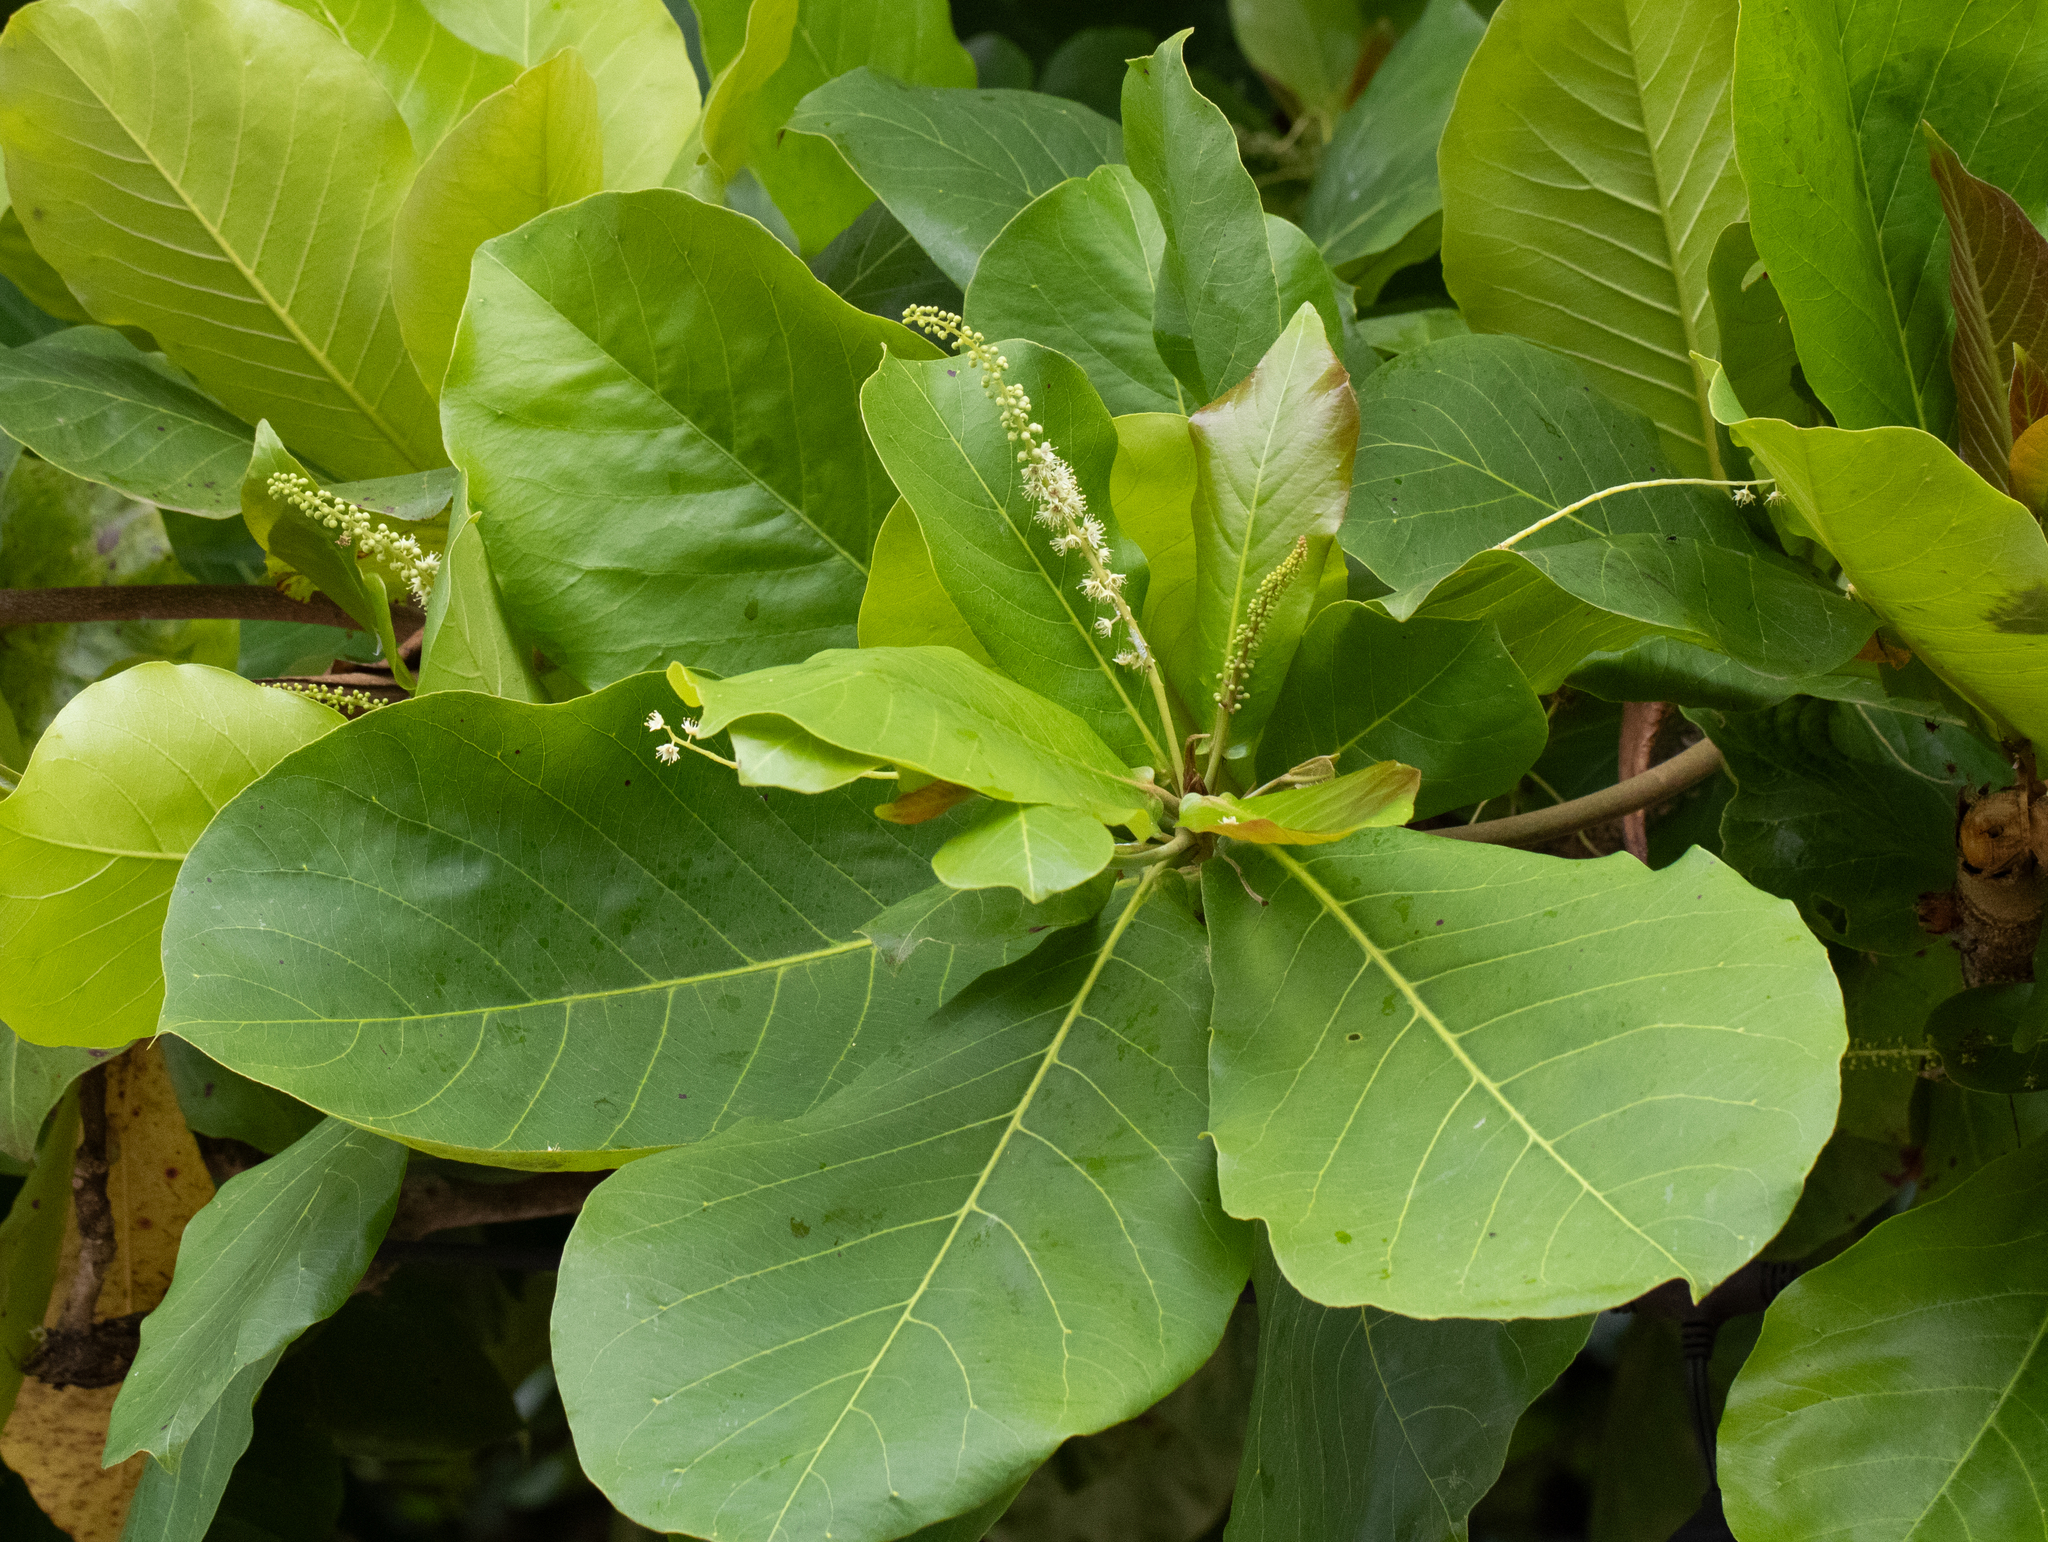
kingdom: Plantae
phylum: Tracheophyta
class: Magnoliopsida
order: Myrtales
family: Combretaceae
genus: Terminalia
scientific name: Terminalia catappa
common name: Tropical almond
